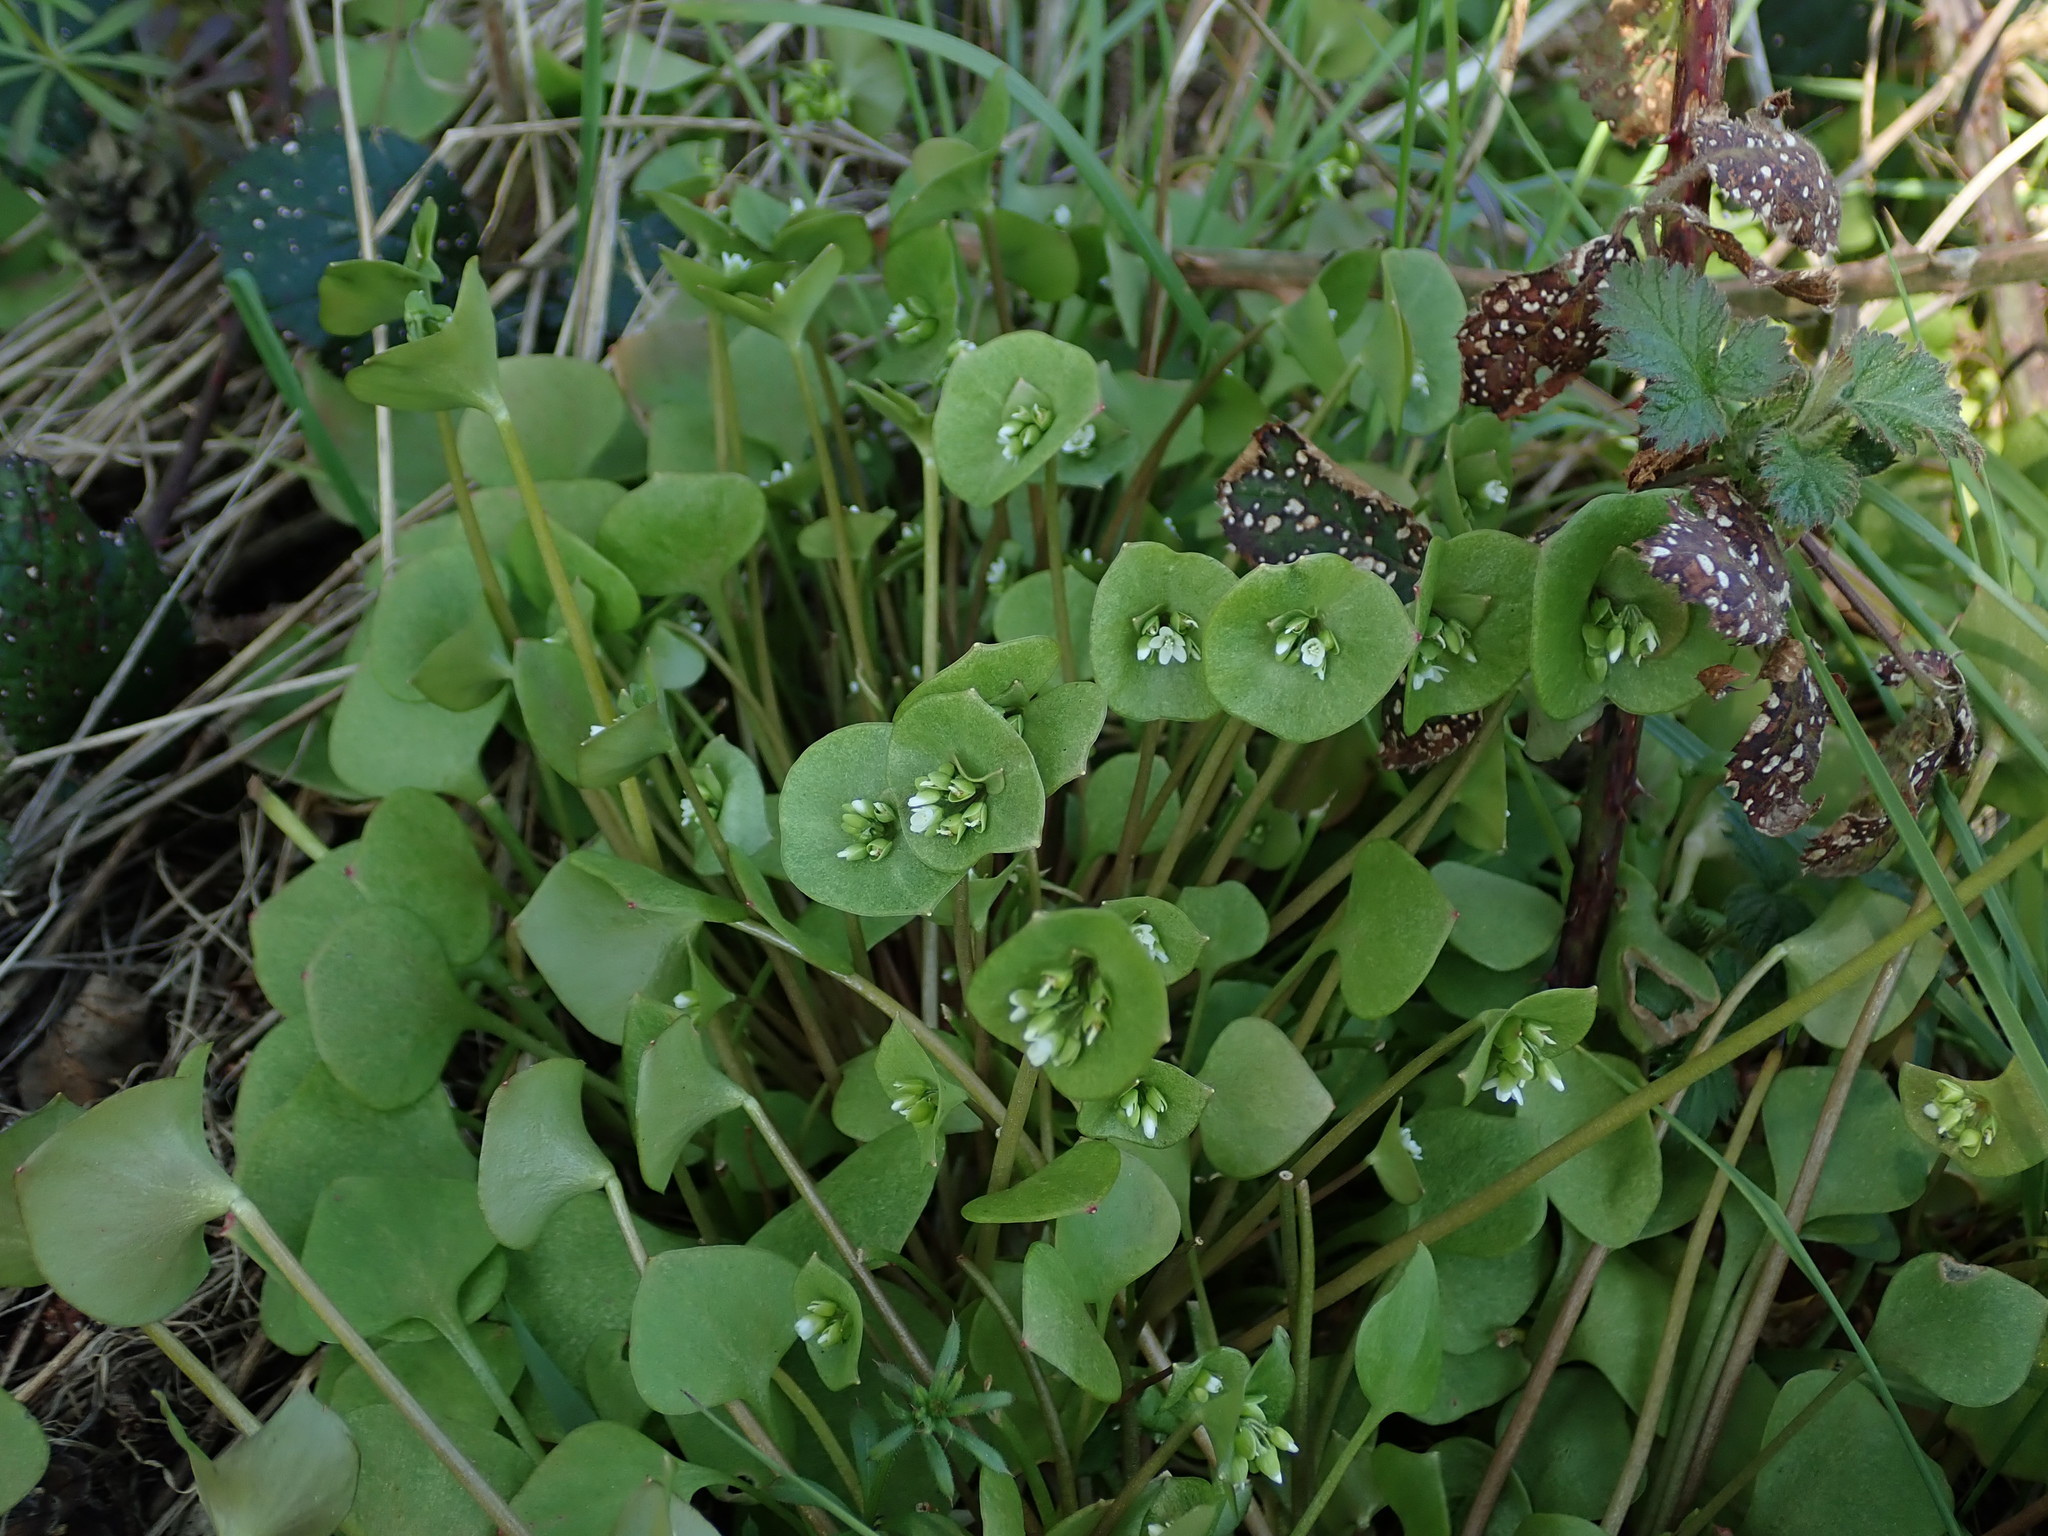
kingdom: Plantae
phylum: Tracheophyta
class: Magnoliopsida
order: Caryophyllales
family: Montiaceae
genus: Claytonia
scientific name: Claytonia perfoliata
